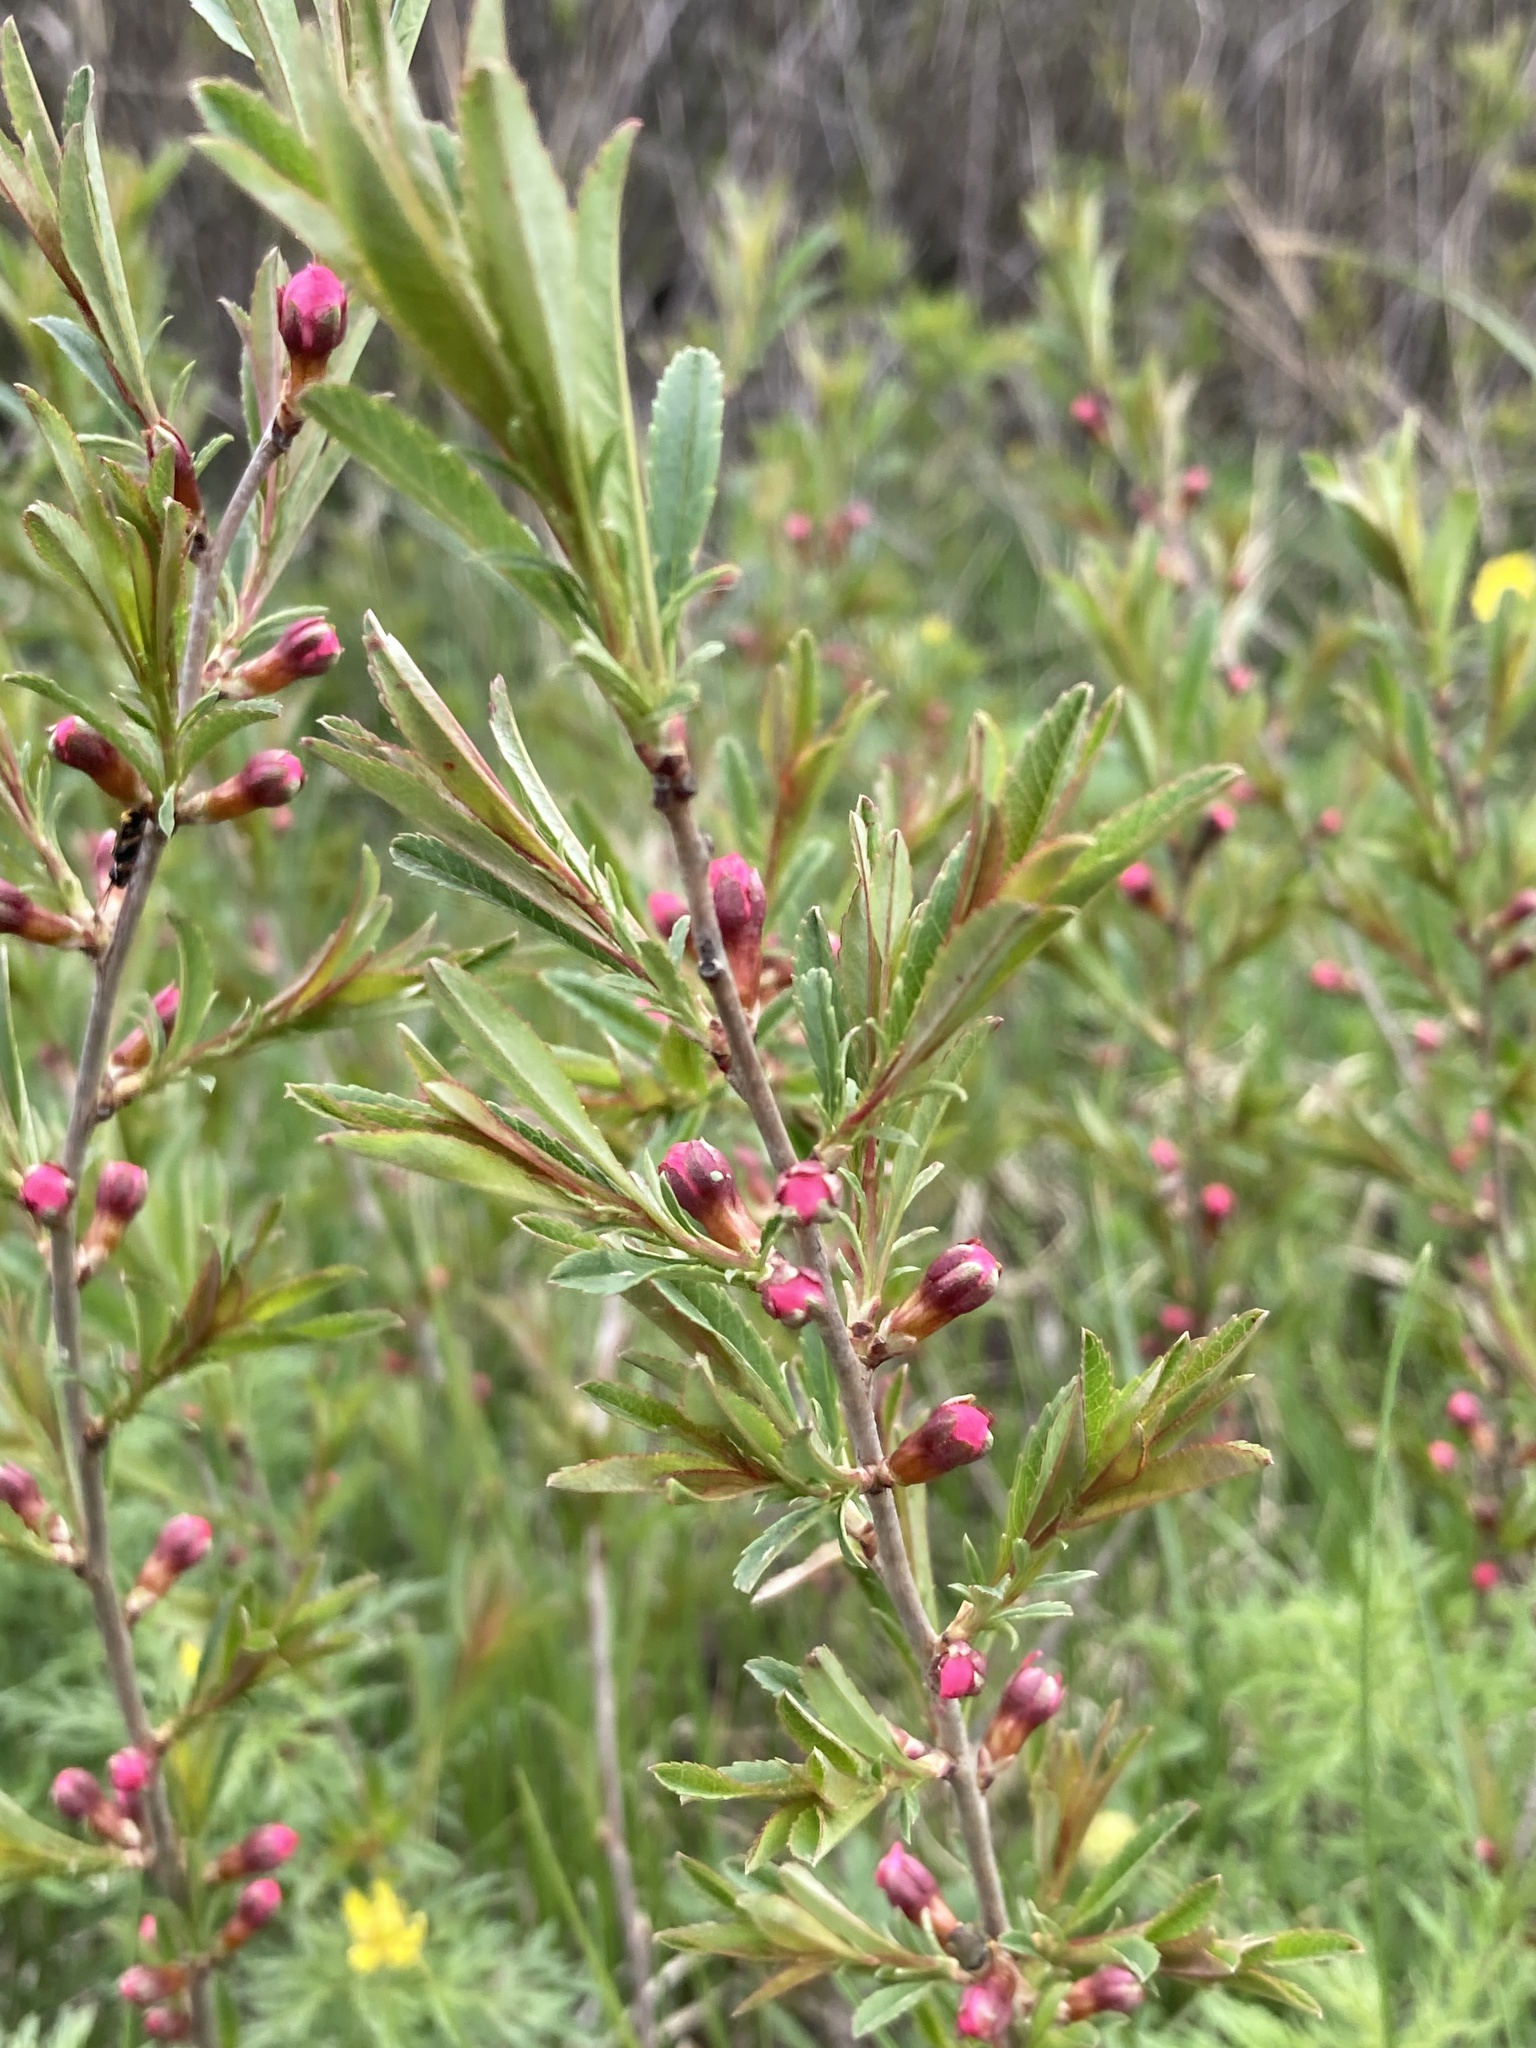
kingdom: Plantae
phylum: Tracheophyta
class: Magnoliopsida
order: Rosales
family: Rosaceae
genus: Prunus
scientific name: Prunus tenella
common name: Dwarf russian almond
